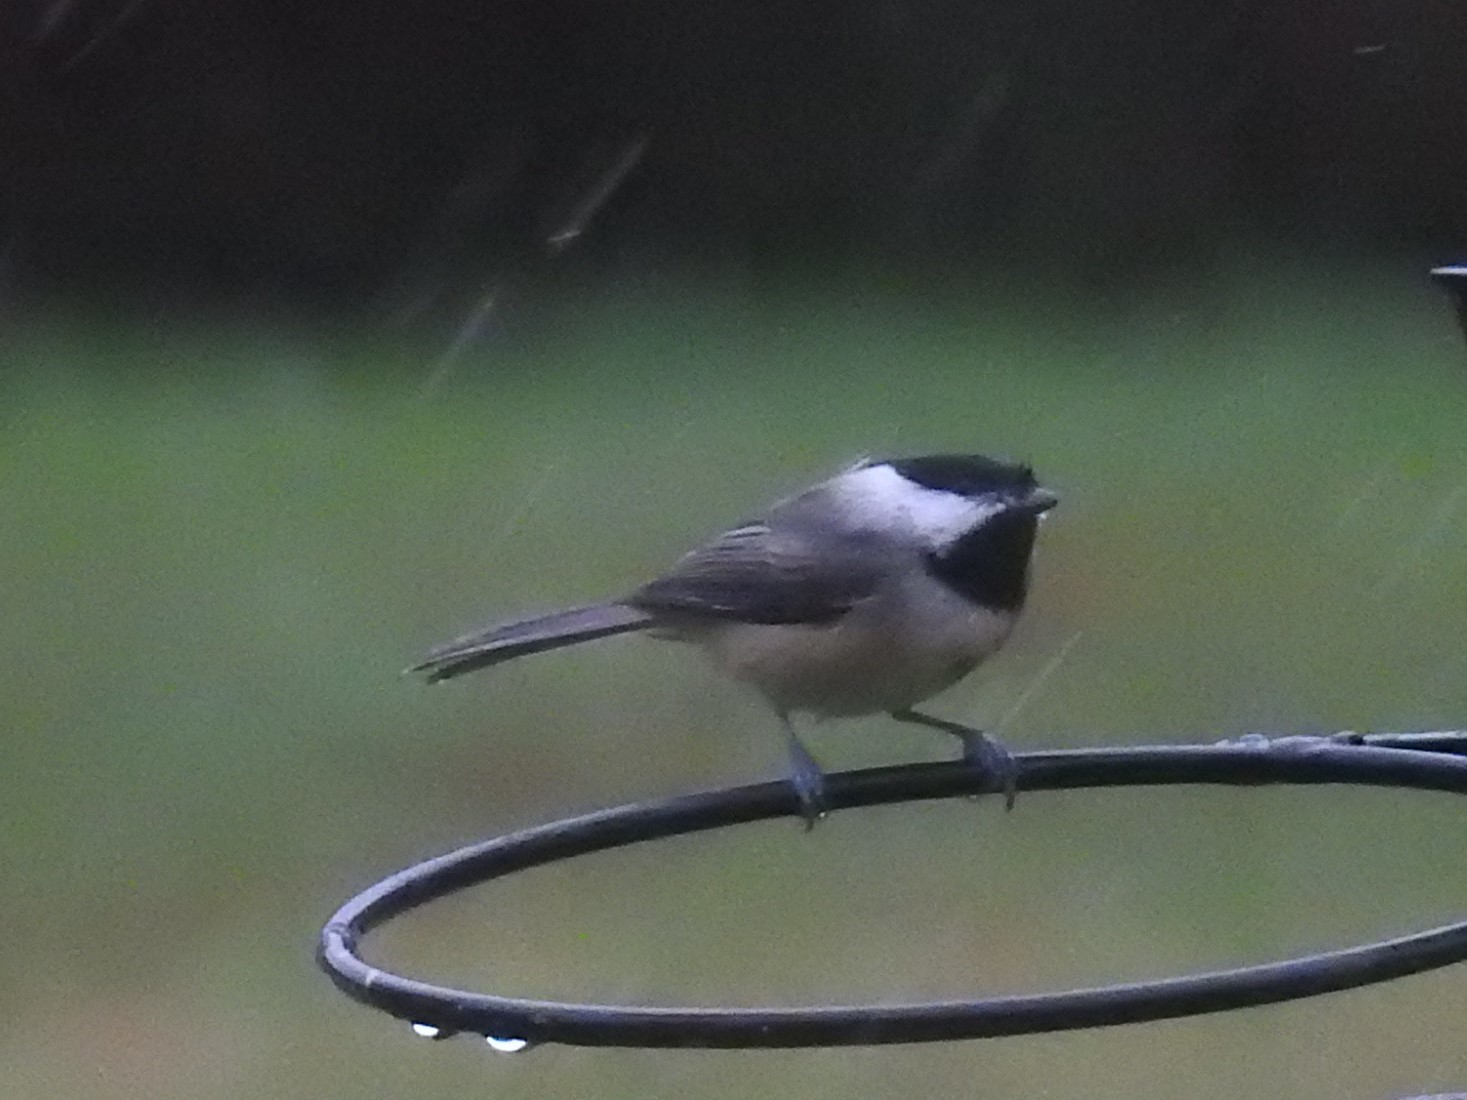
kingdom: Animalia
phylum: Chordata
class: Aves
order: Passeriformes
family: Paridae
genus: Poecile
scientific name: Poecile carolinensis
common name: Carolina chickadee
